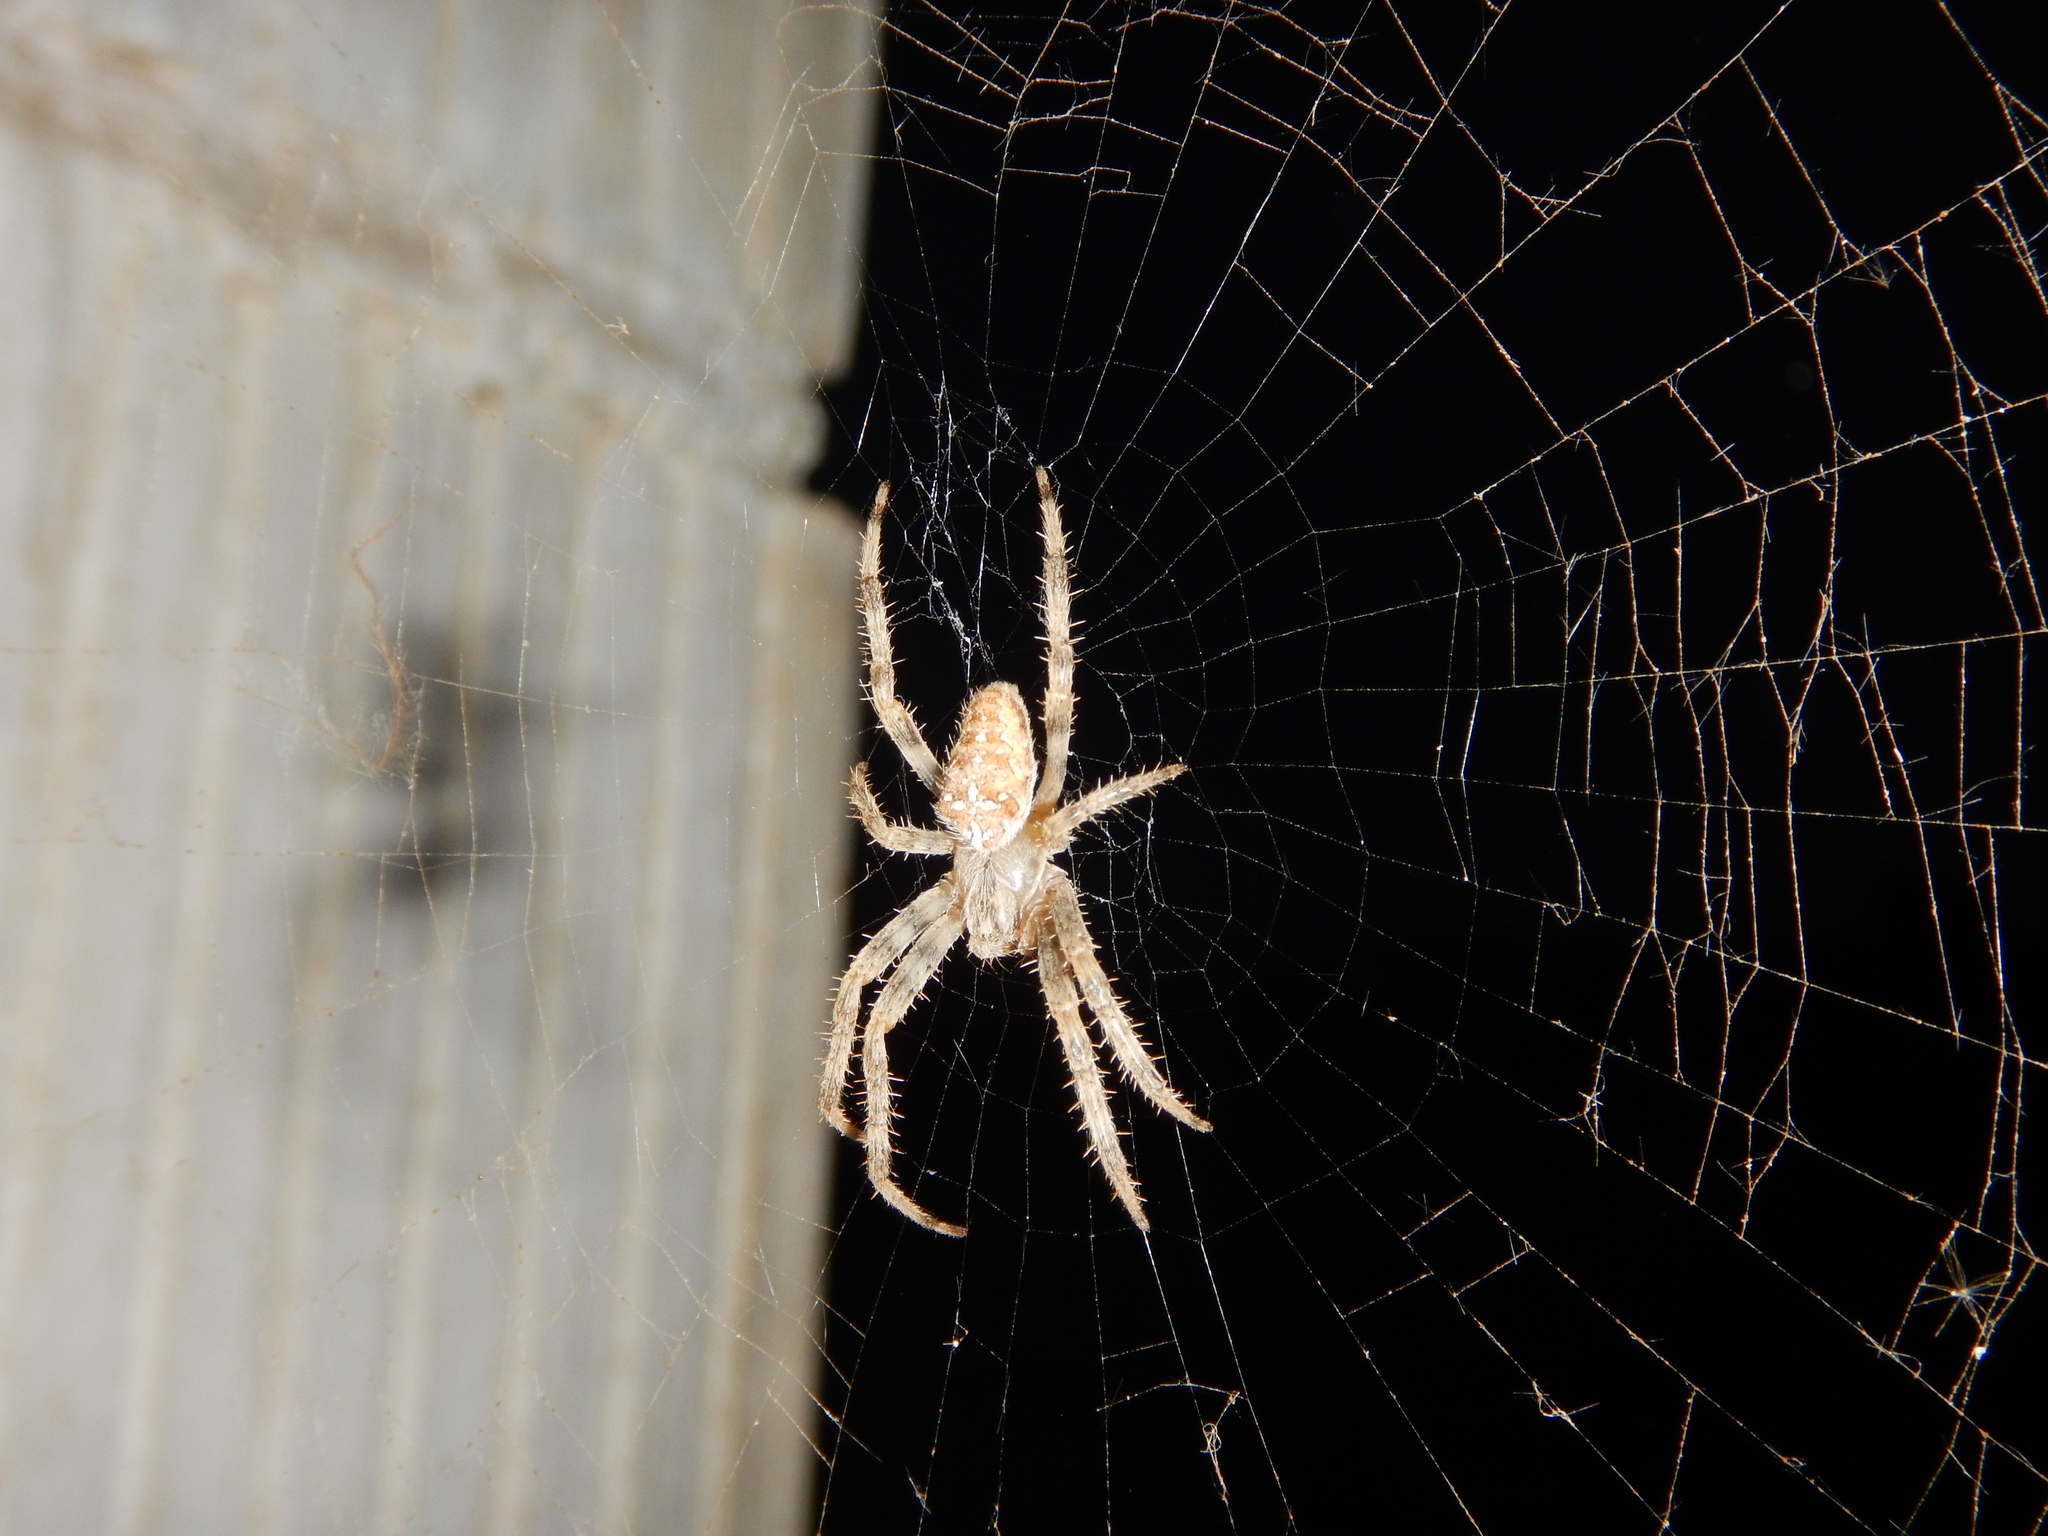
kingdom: Animalia
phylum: Arthropoda
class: Arachnida
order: Araneae
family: Araneidae
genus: Araneus
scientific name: Araneus diadematus
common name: Cross orbweaver
